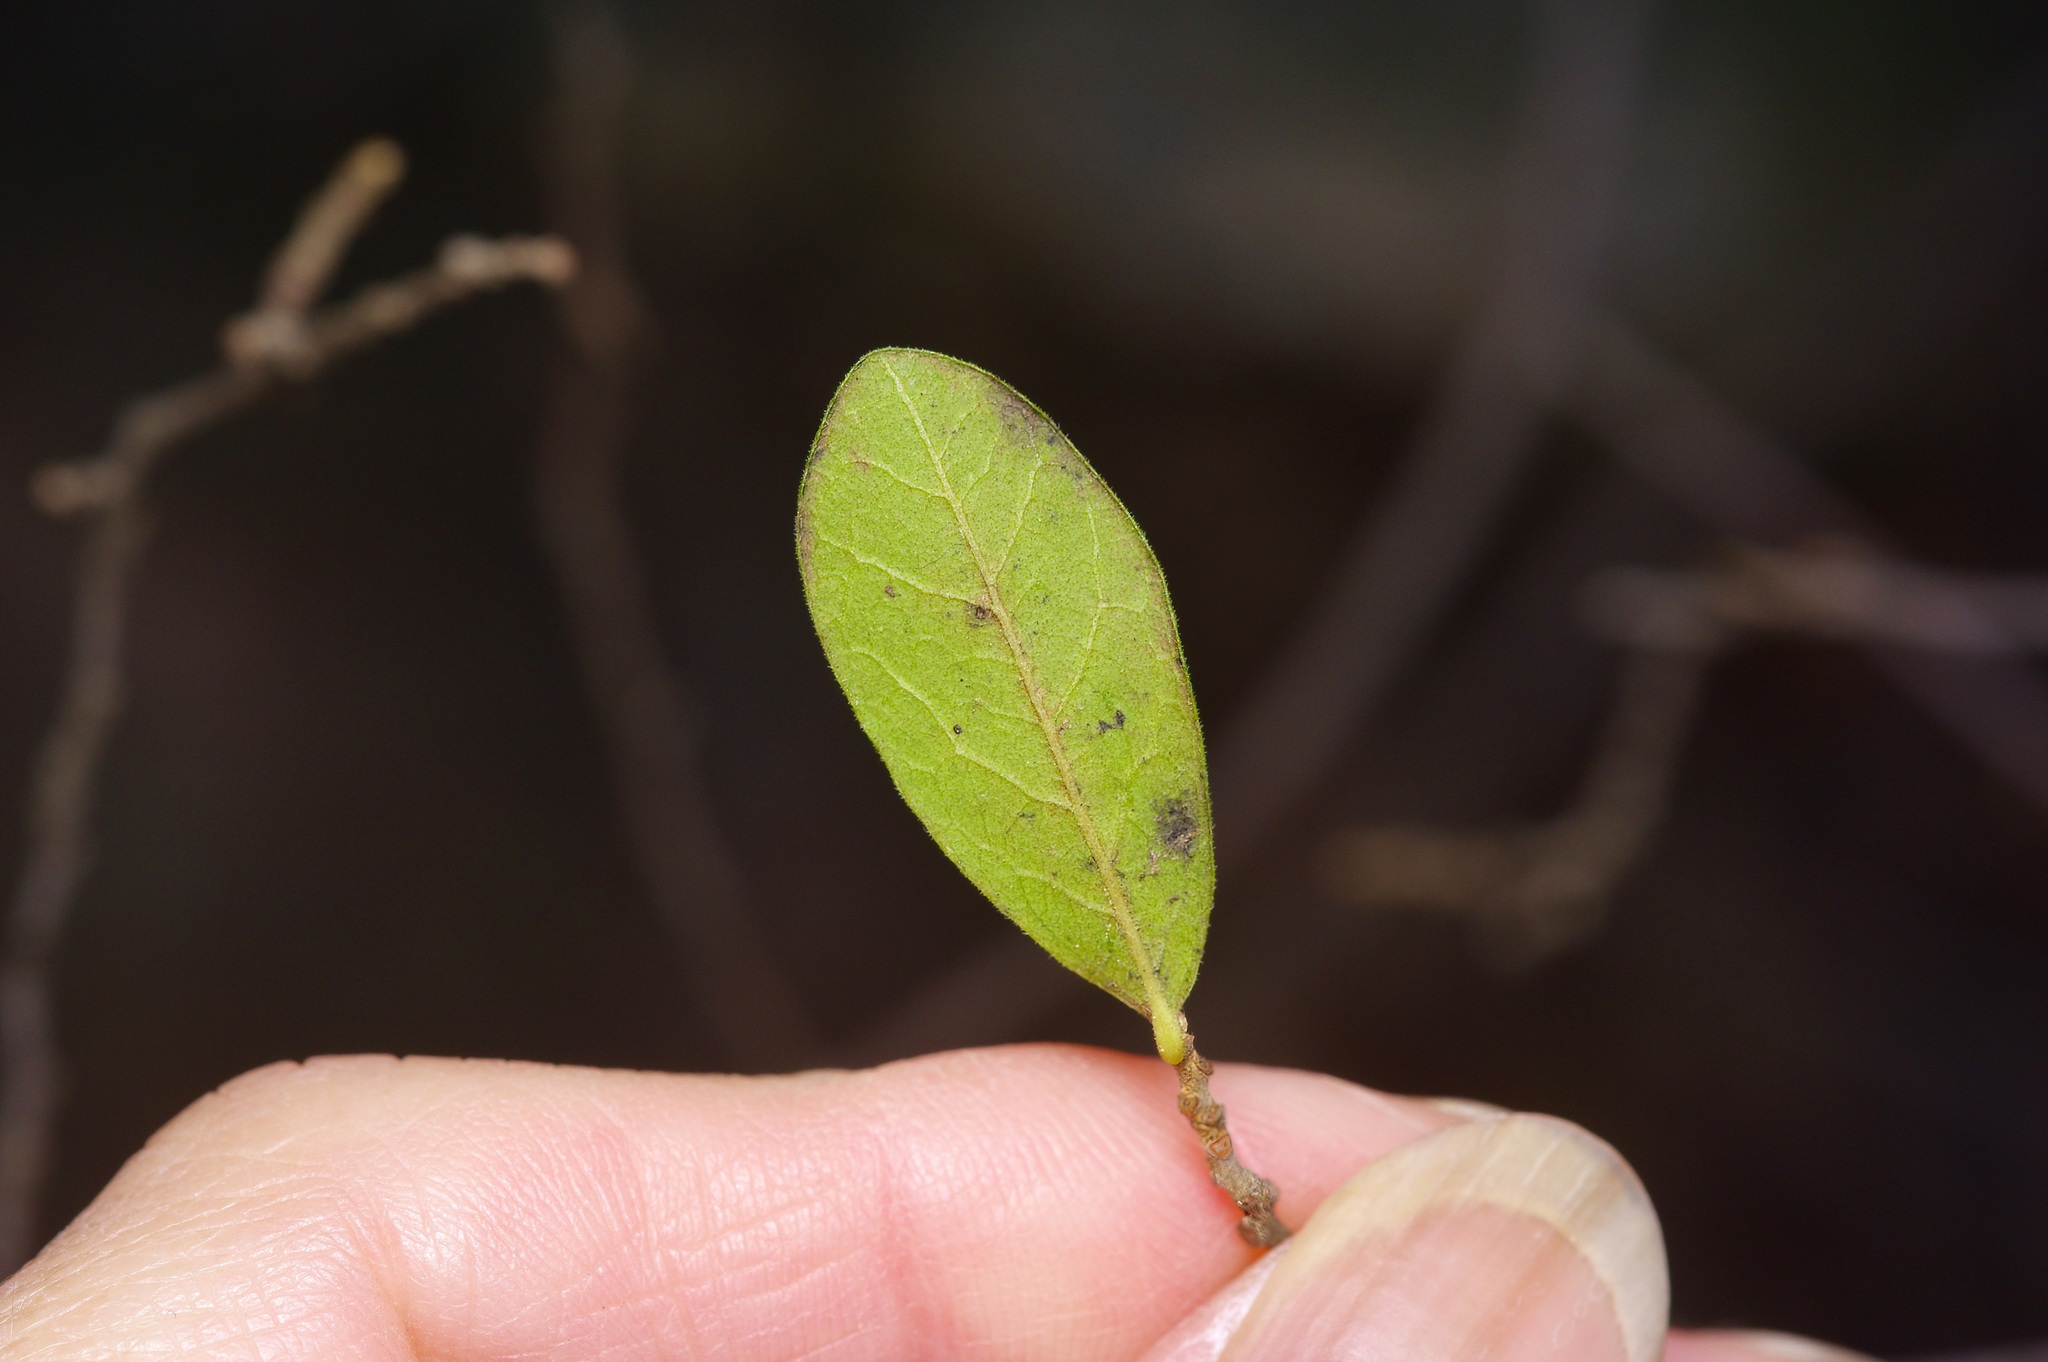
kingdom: Plantae
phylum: Tracheophyta
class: Magnoliopsida
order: Ericales
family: Ebenaceae
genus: Diospyros
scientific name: Diospyros texana
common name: Texas persimmon
